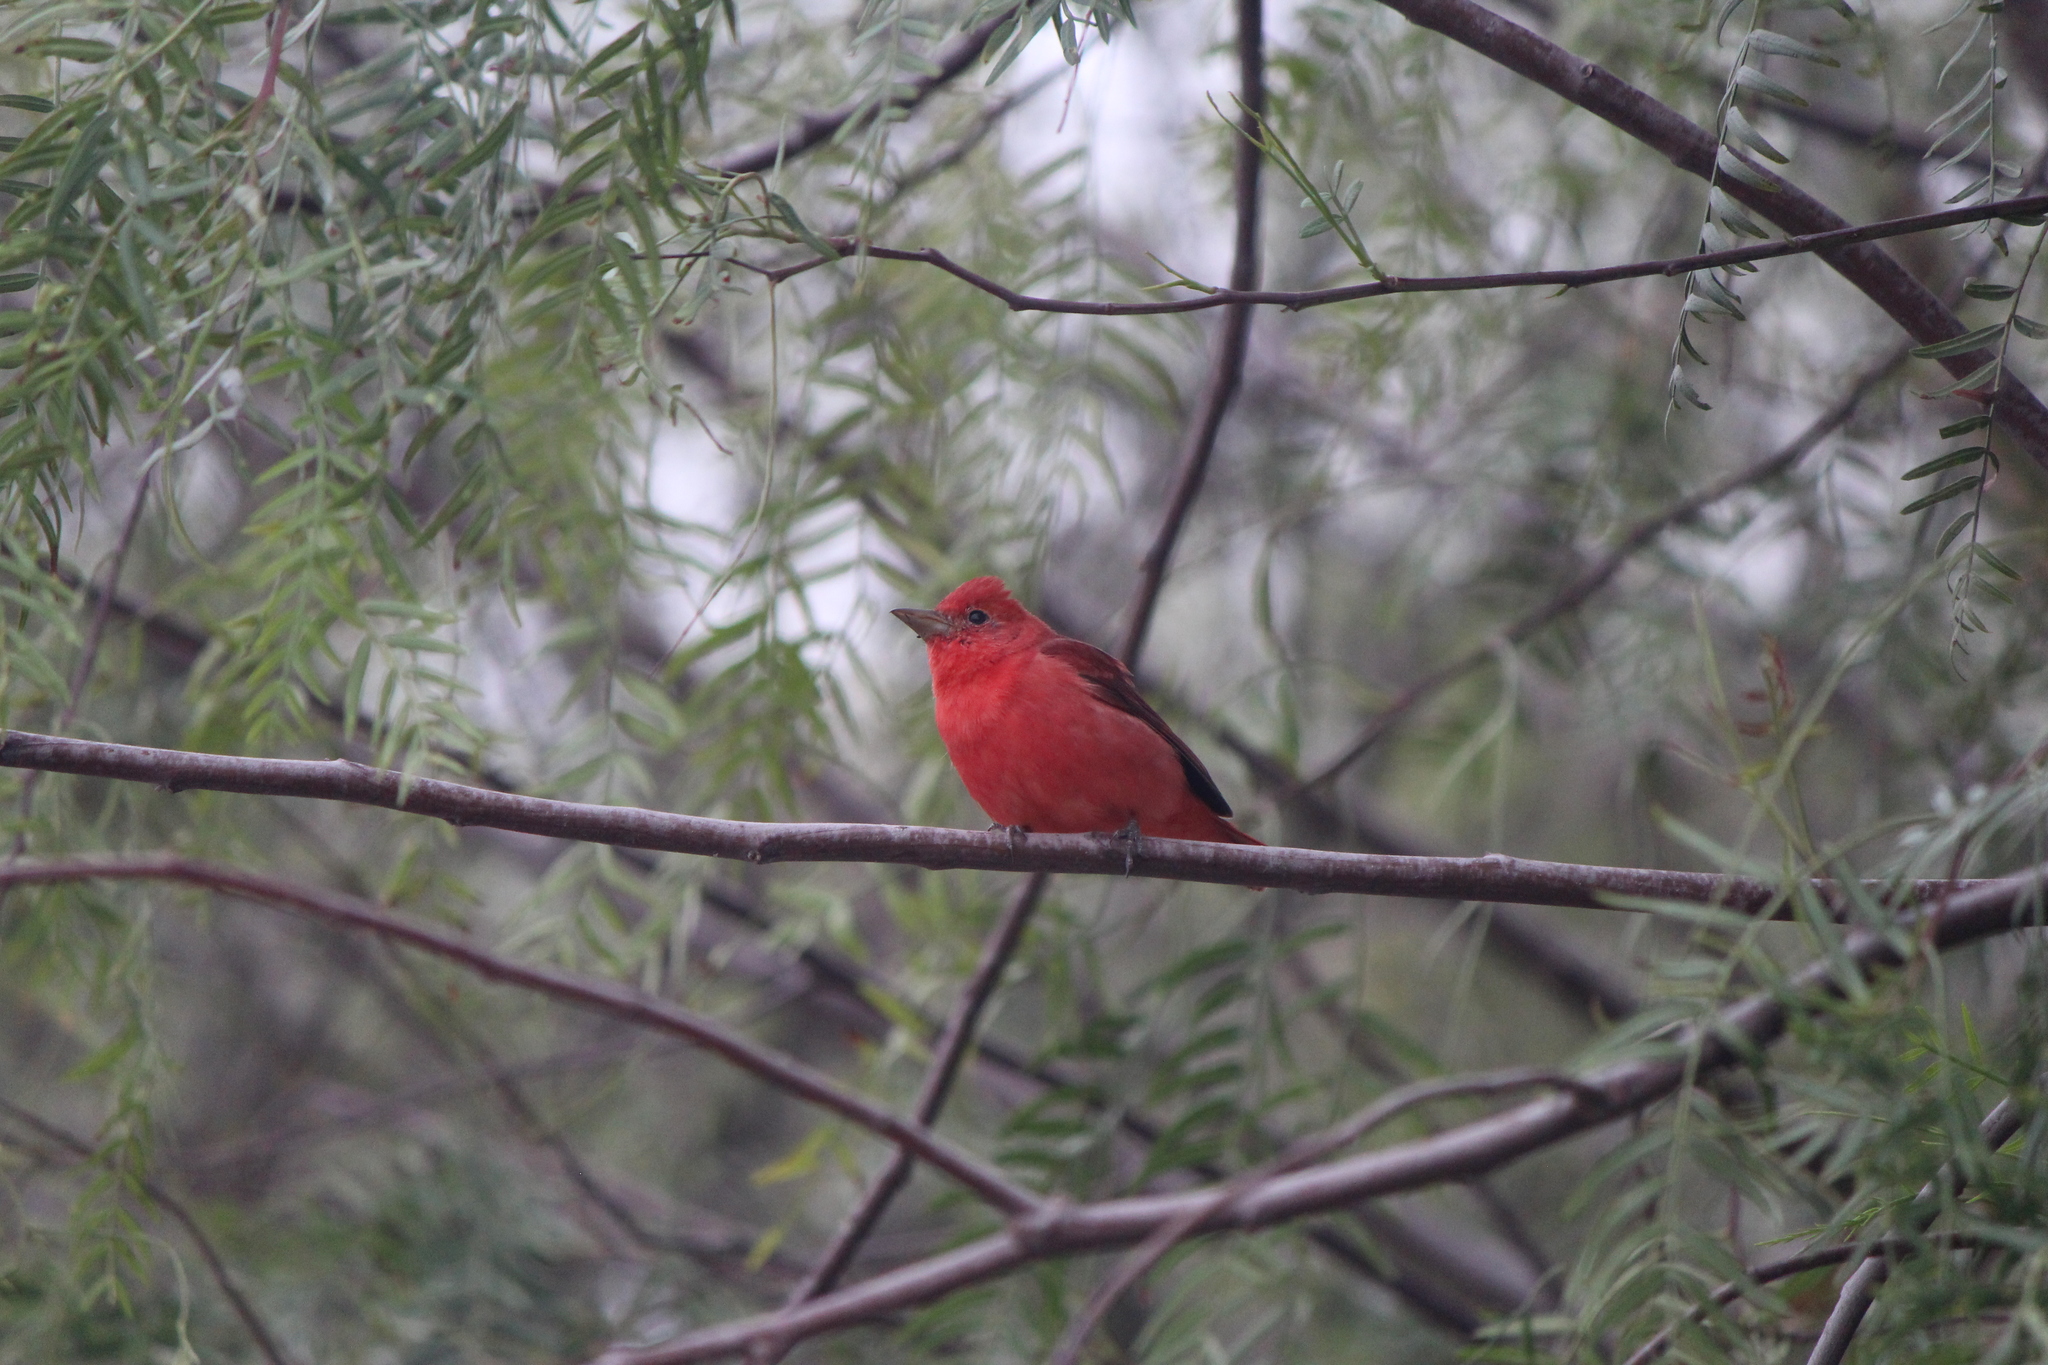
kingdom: Animalia
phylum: Chordata
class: Aves
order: Passeriformes
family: Cardinalidae
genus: Piranga
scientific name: Piranga rubra
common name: Summer tanager
